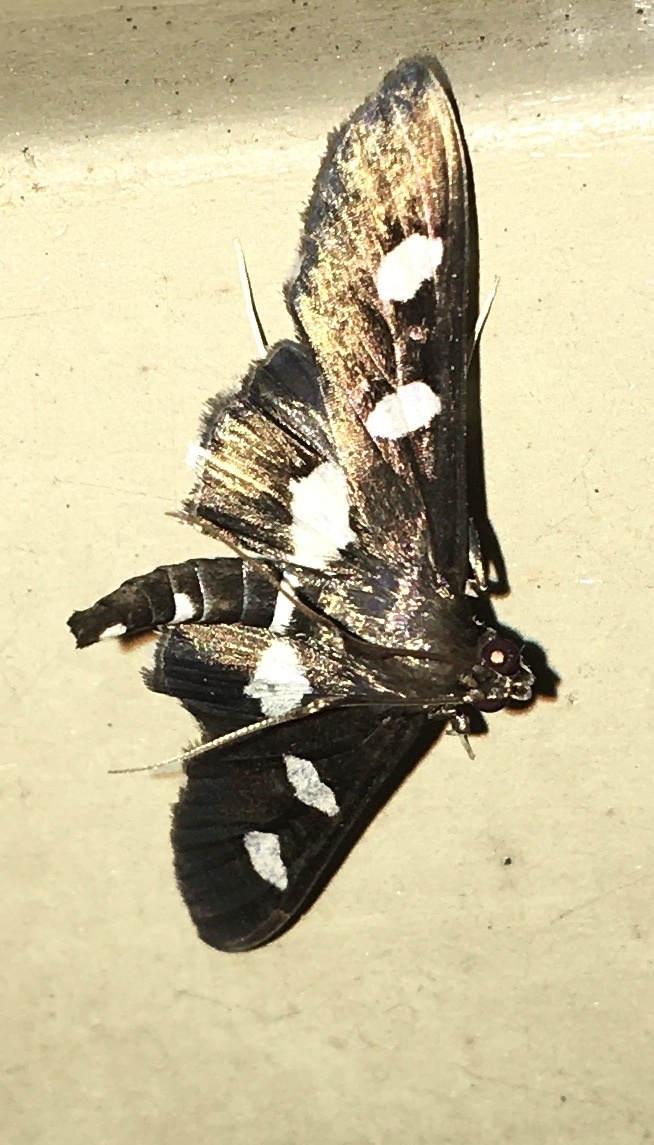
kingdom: Animalia
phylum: Arthropoda
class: Insecta
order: Lepidoptera
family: Crambidae
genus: Desmia
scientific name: Desmia
